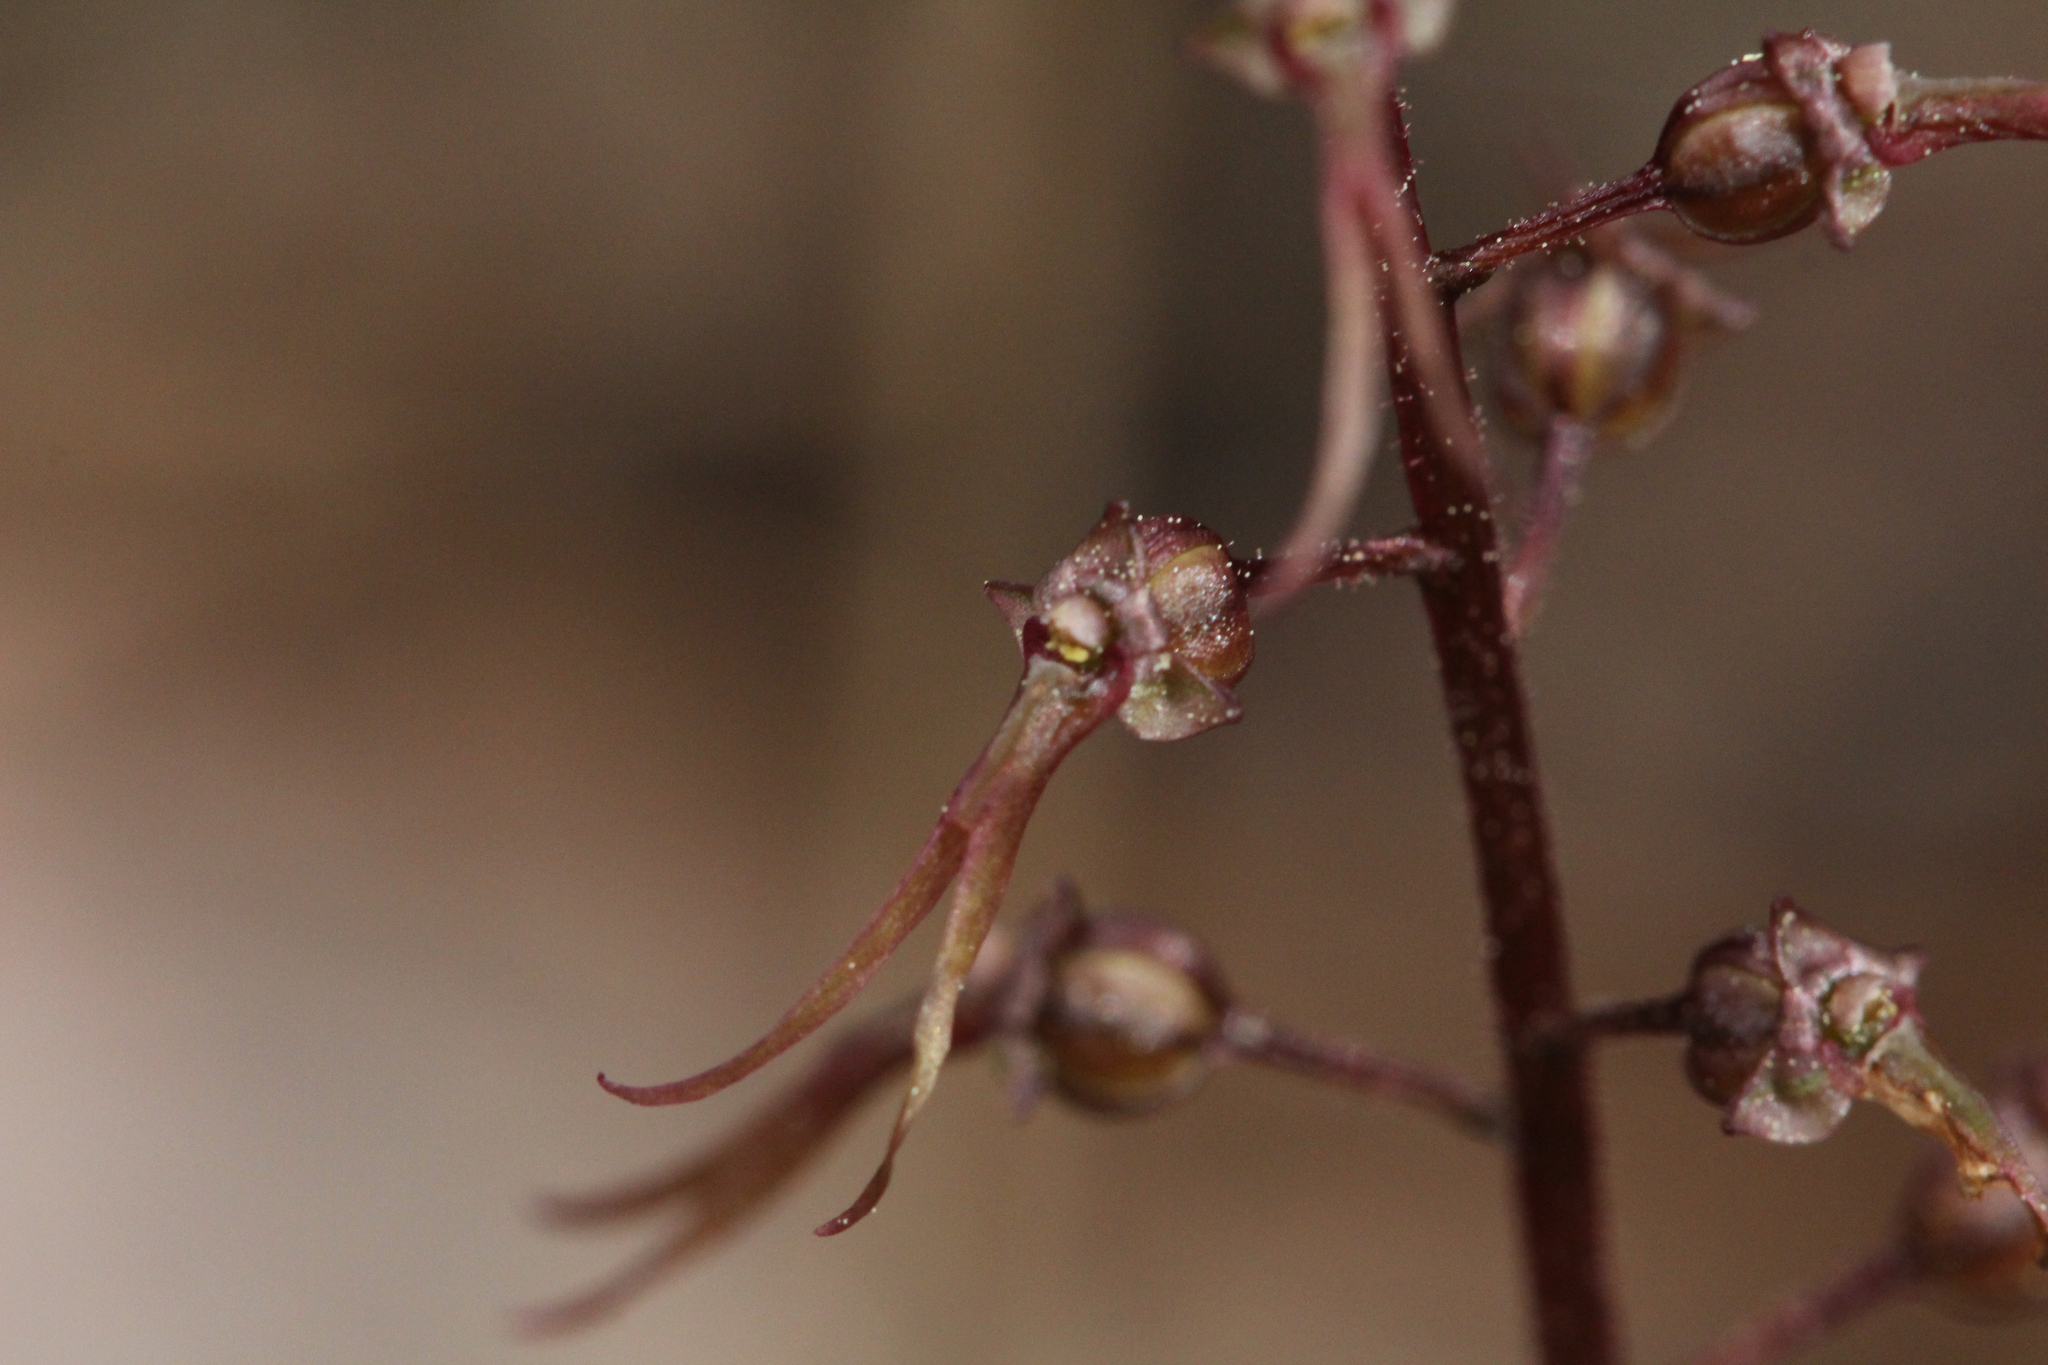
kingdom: Plantae
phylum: Tracheophyta
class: Liliopsida
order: Asparagales
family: Orchidaceae
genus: Neottia
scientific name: Neottia bifolia
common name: Southern twayblade
